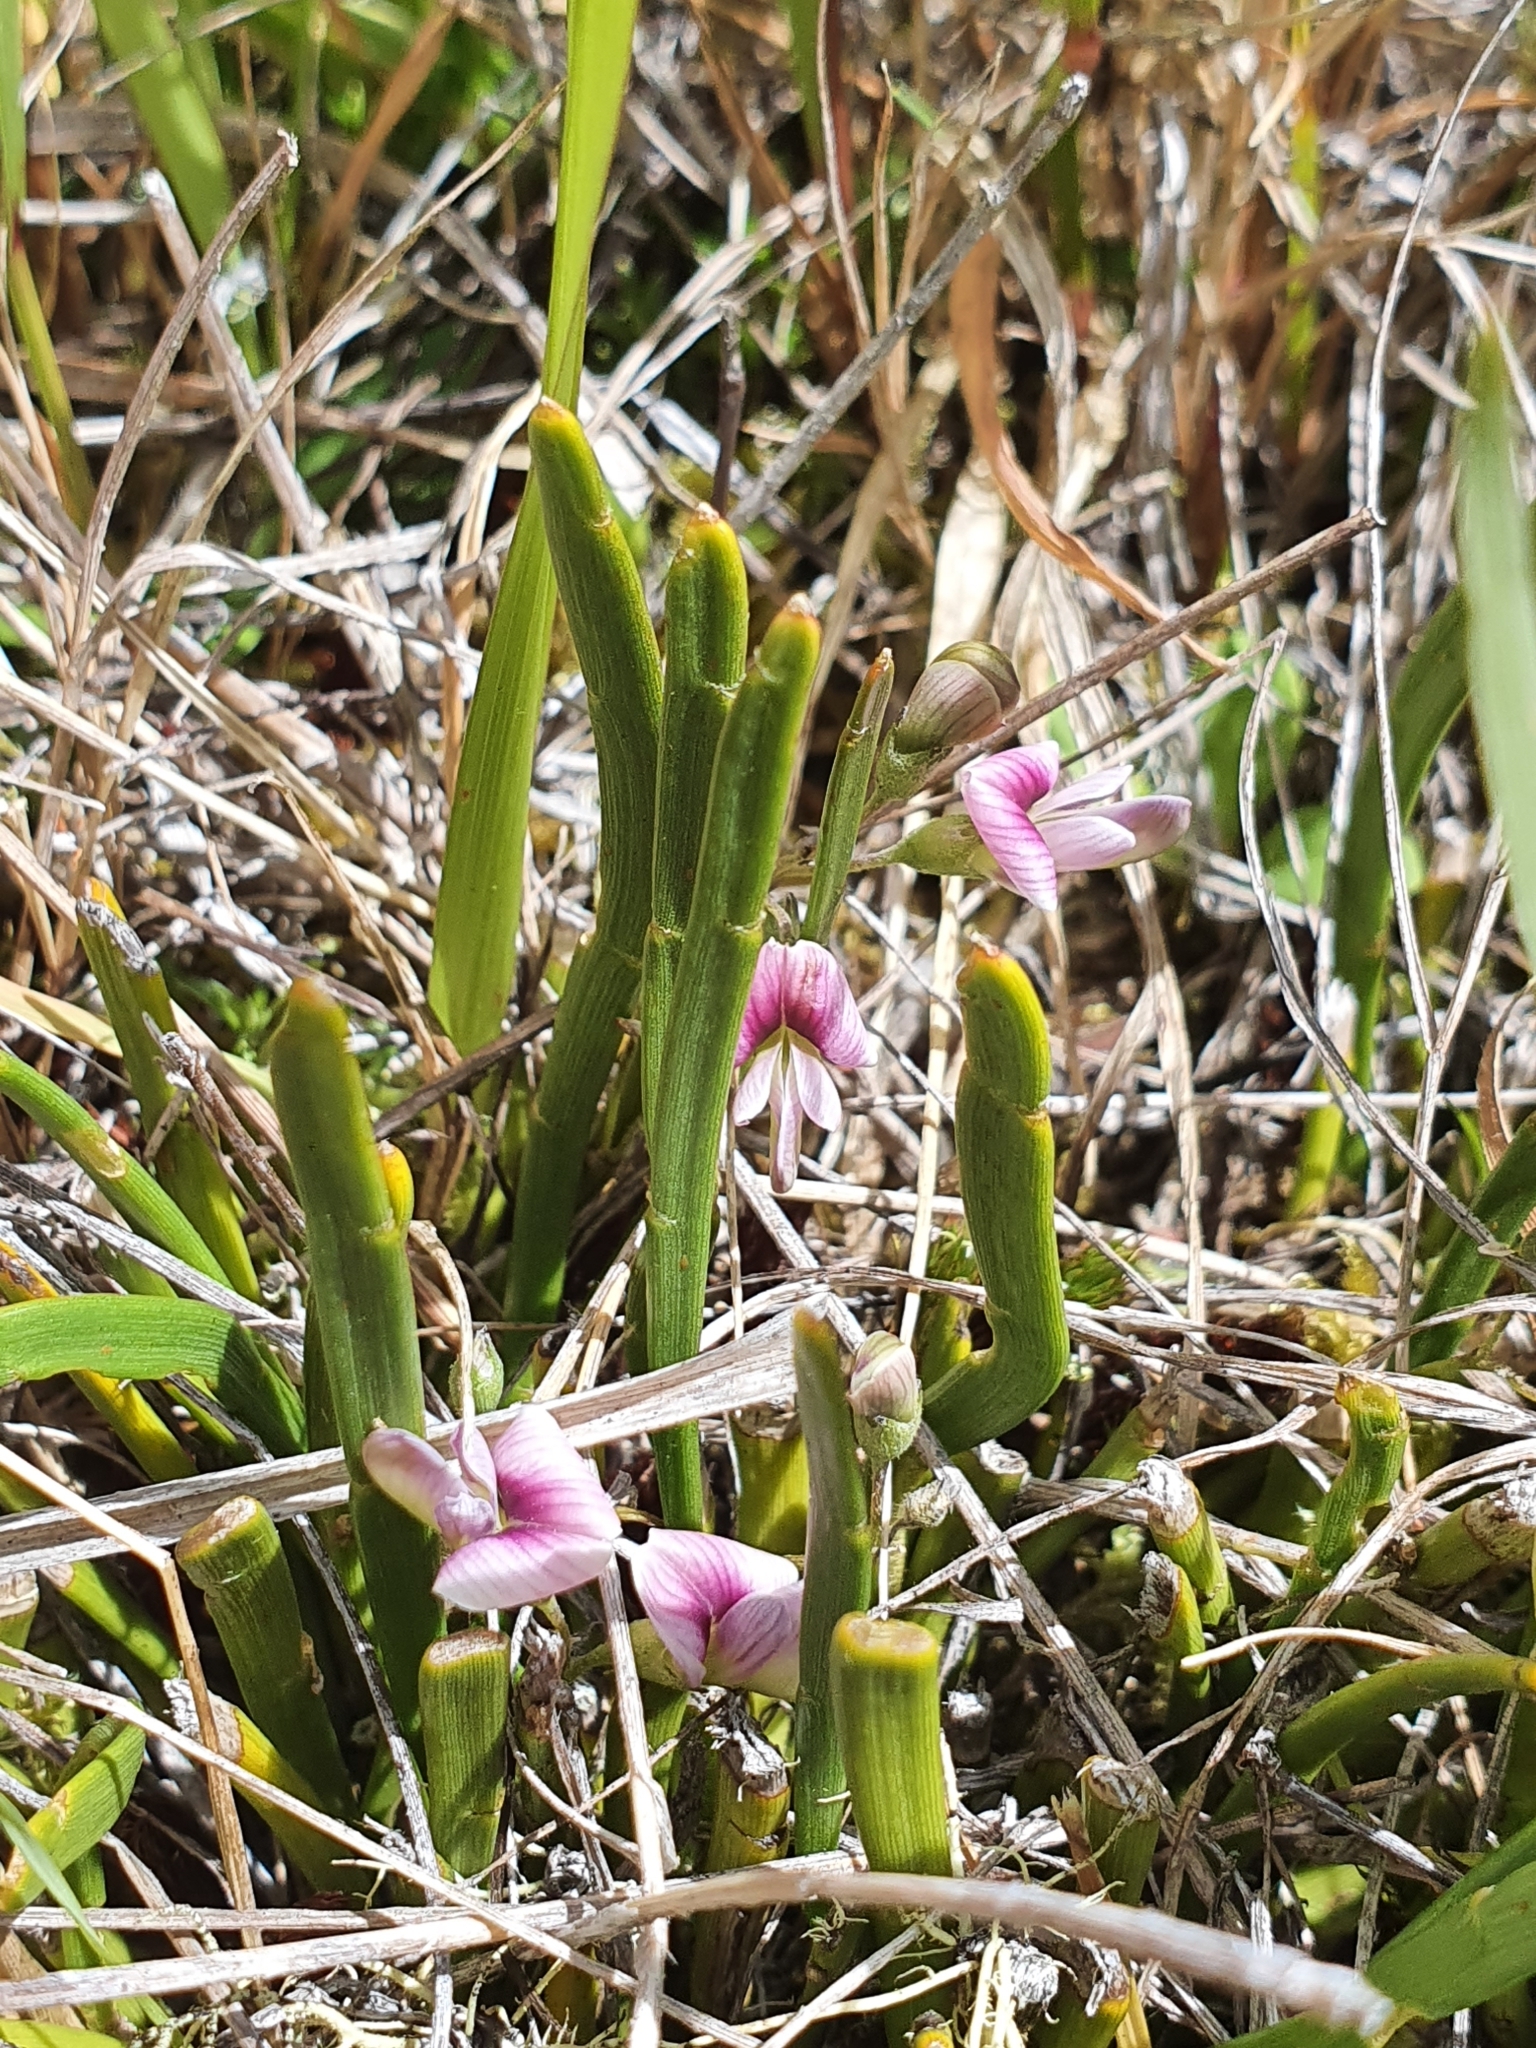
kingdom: Plantae
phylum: Tracheophyta
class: Magnoliopsida
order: Fabales
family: Fabaceae
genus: Carmichaelia
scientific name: Carmichaelia monroi
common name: Stout dwarf broom
